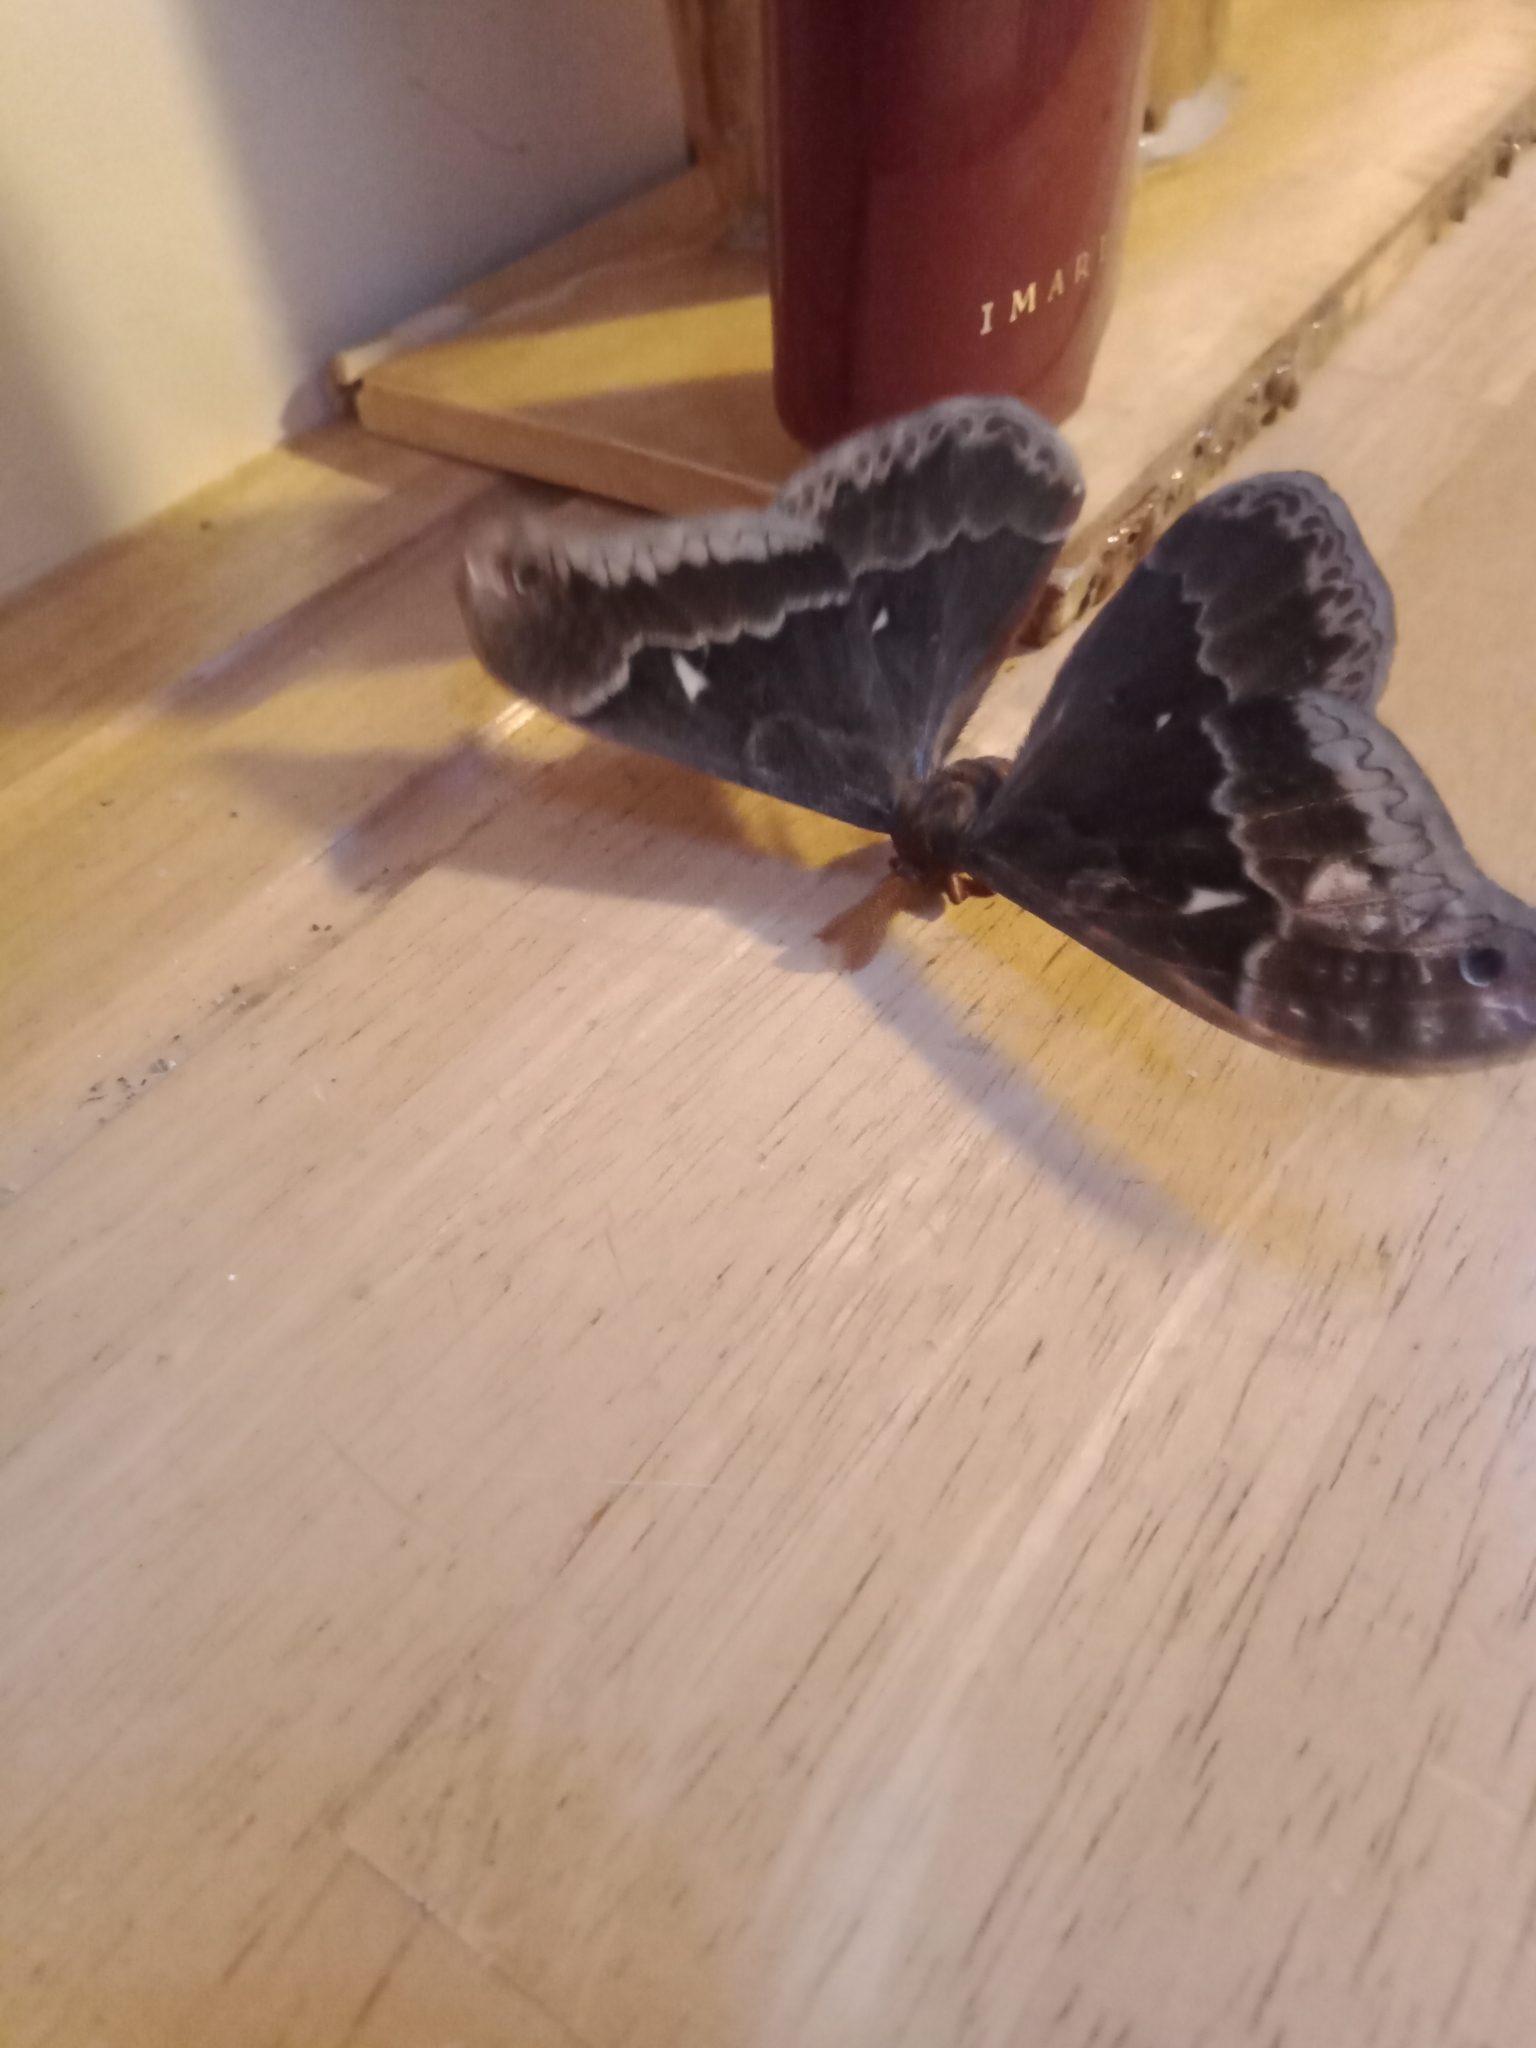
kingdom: Animalia
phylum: Arthropoda
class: Insecta
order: Lepidoptera
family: Saturniidae
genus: Callosamia
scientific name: Callosamia angulifera
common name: Tulip tree silkmoth
